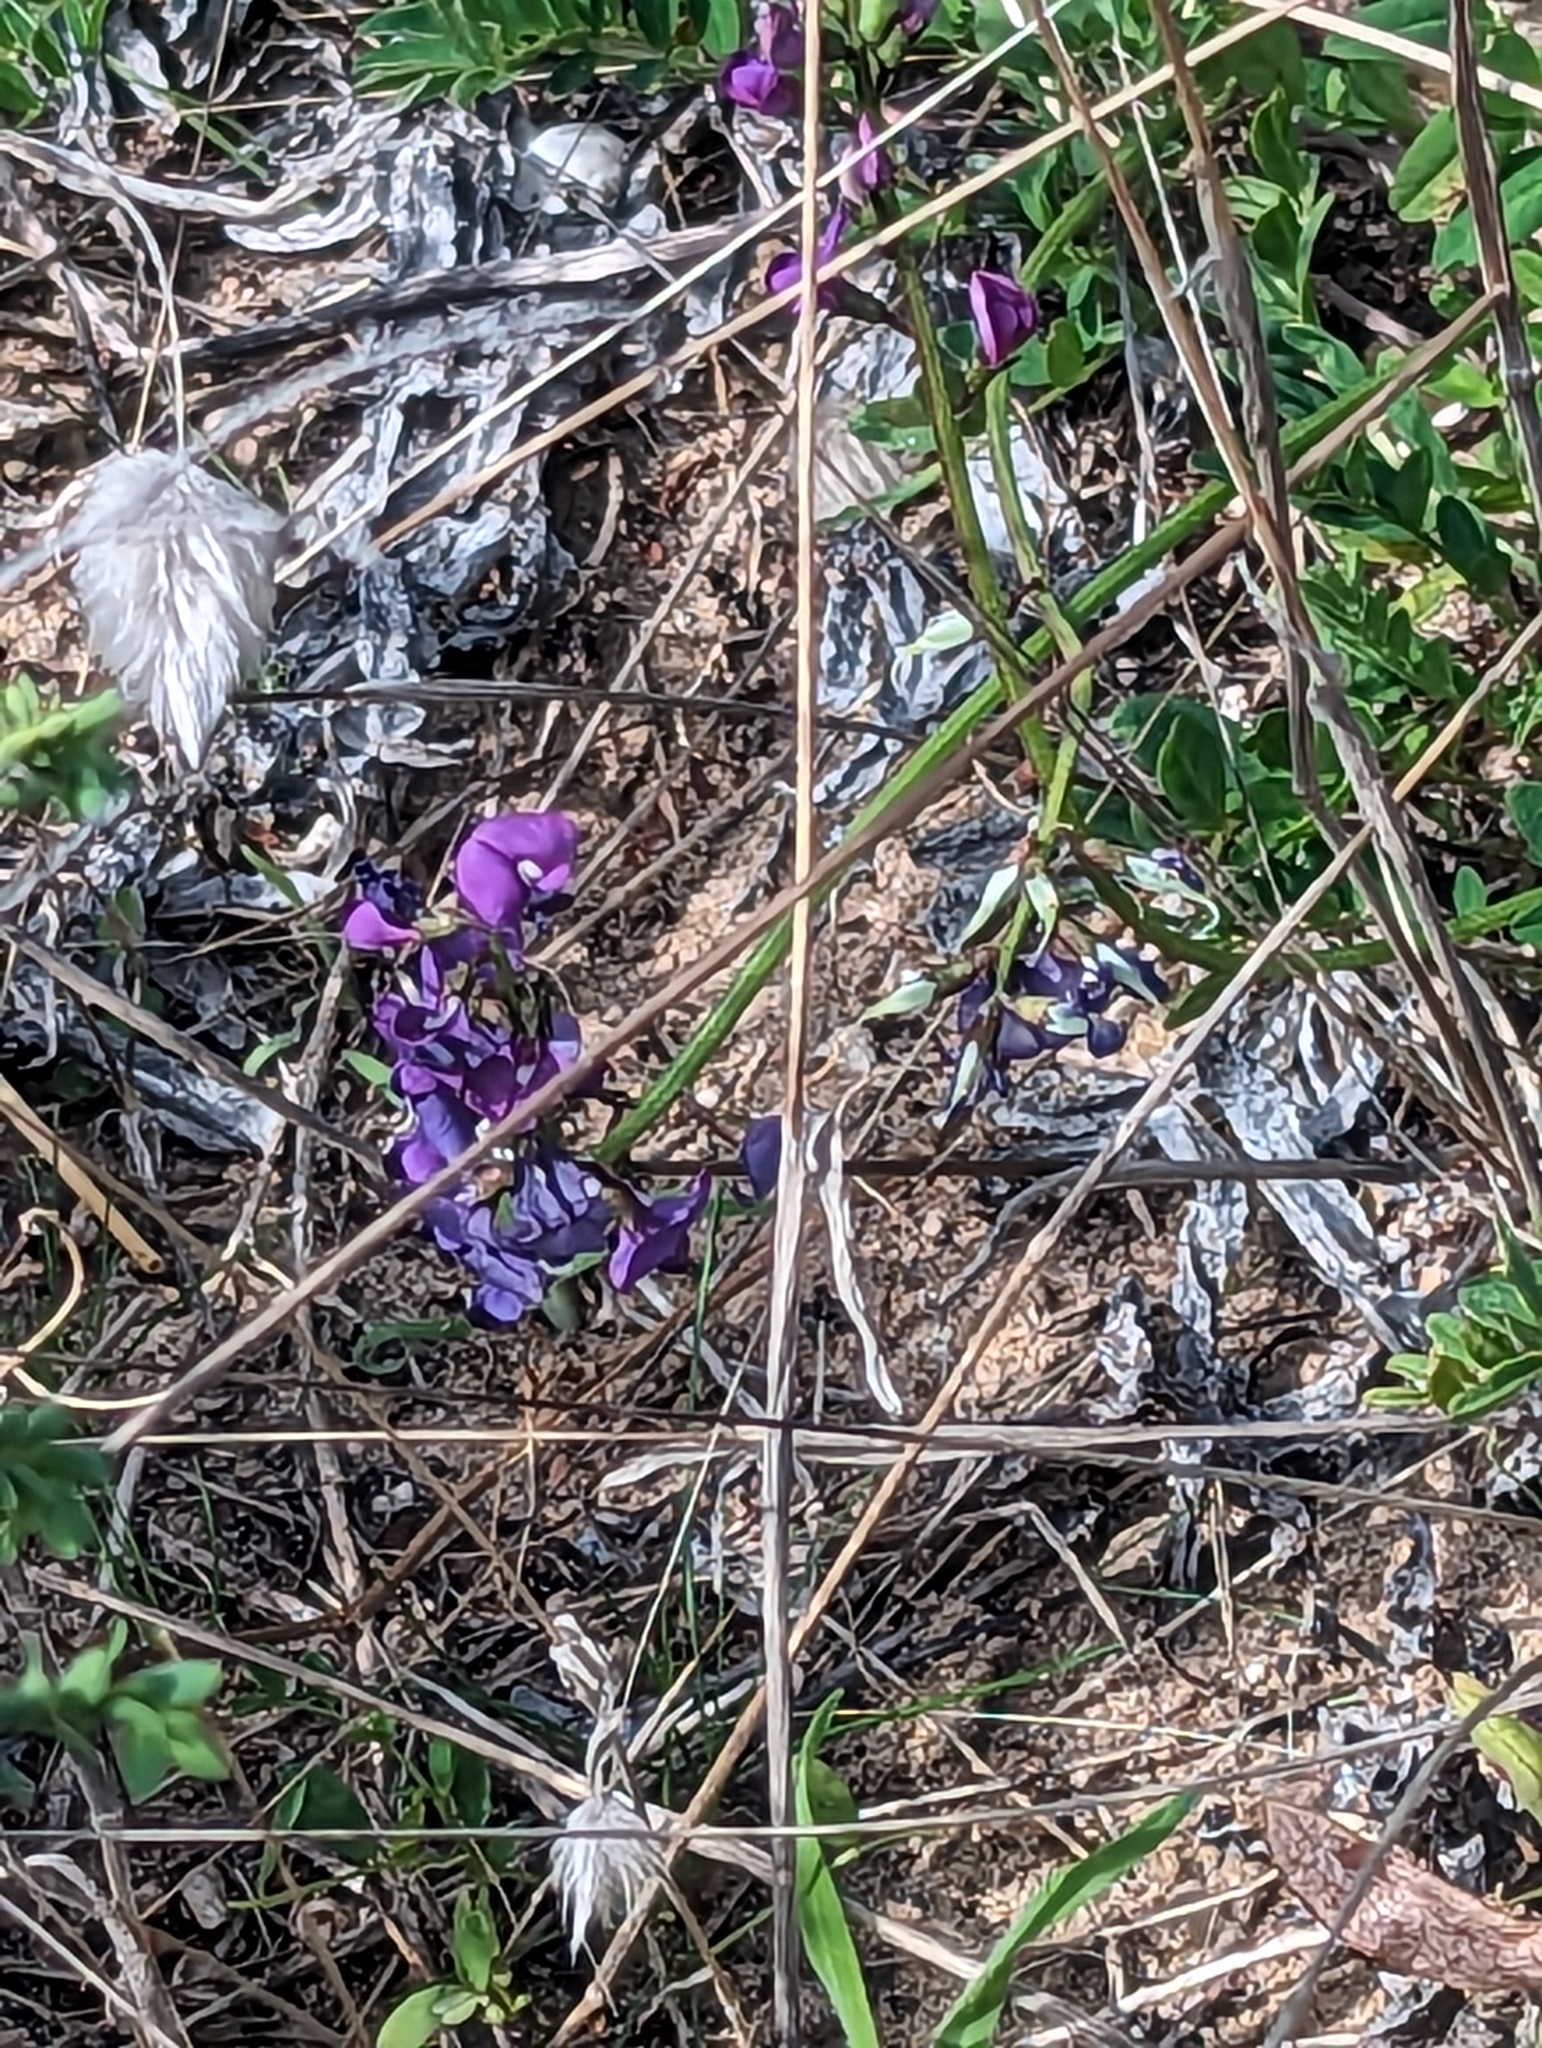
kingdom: Plantae
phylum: Tracheophyta
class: Magnoliopsida
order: Fabales
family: Fabaceae
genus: Swainsona
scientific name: Swainsona lessertiifolia
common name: Bog-pea
